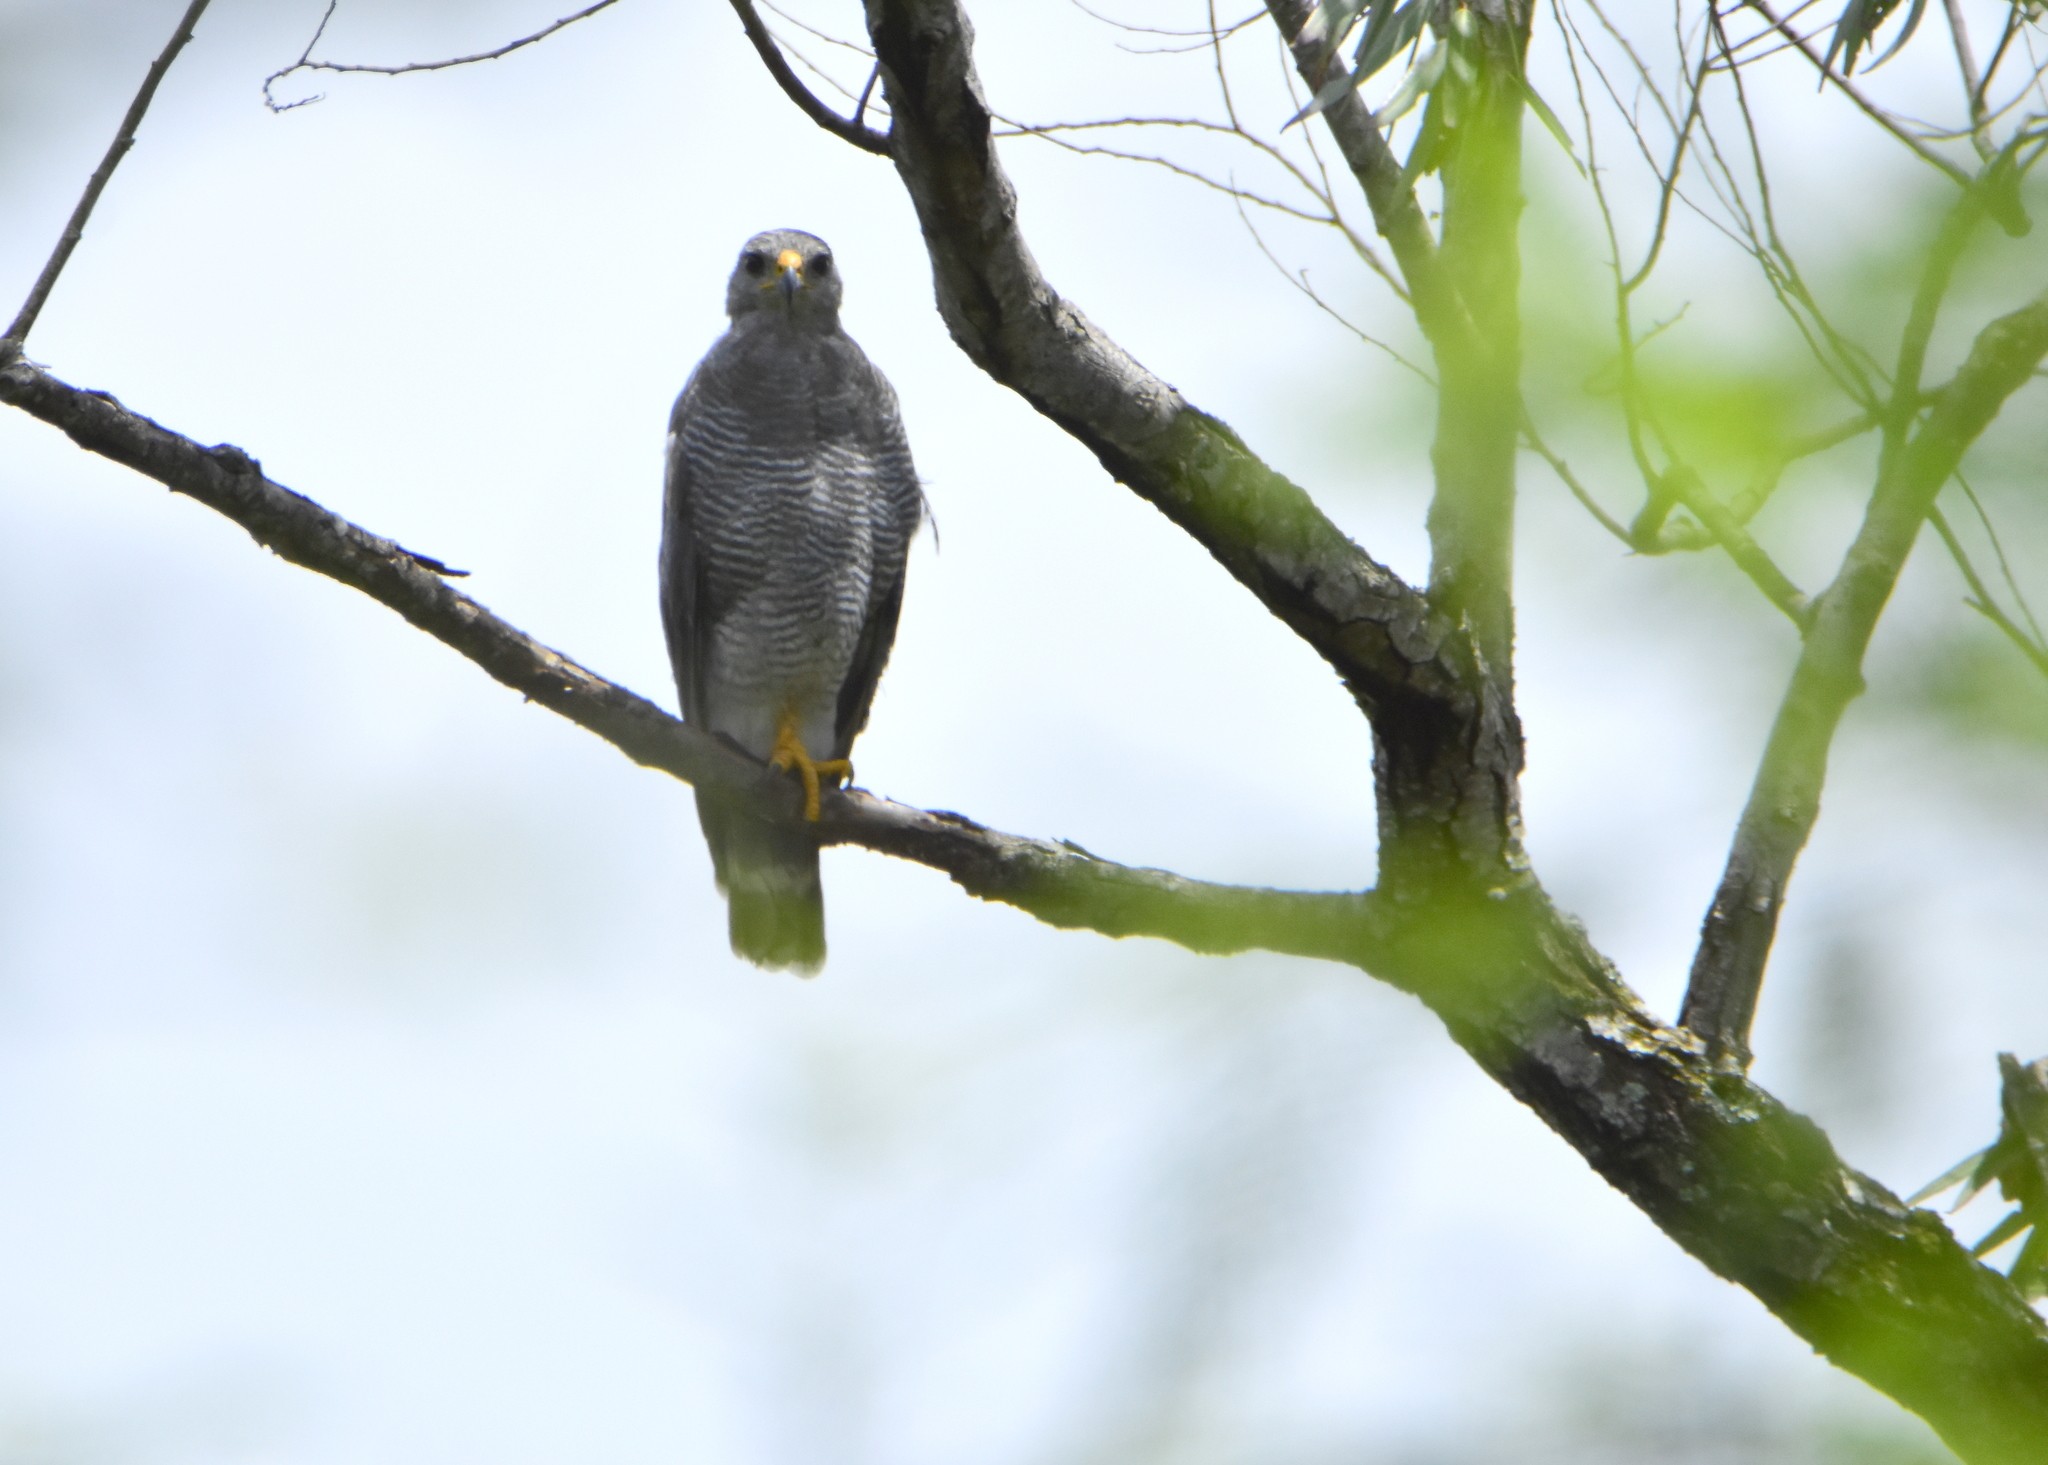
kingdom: Animalia
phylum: Chordata
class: Aves
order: Accipitriformes
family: Accipitridae
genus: Buteo
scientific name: Buteo nitidus
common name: Grey-lined hawk
